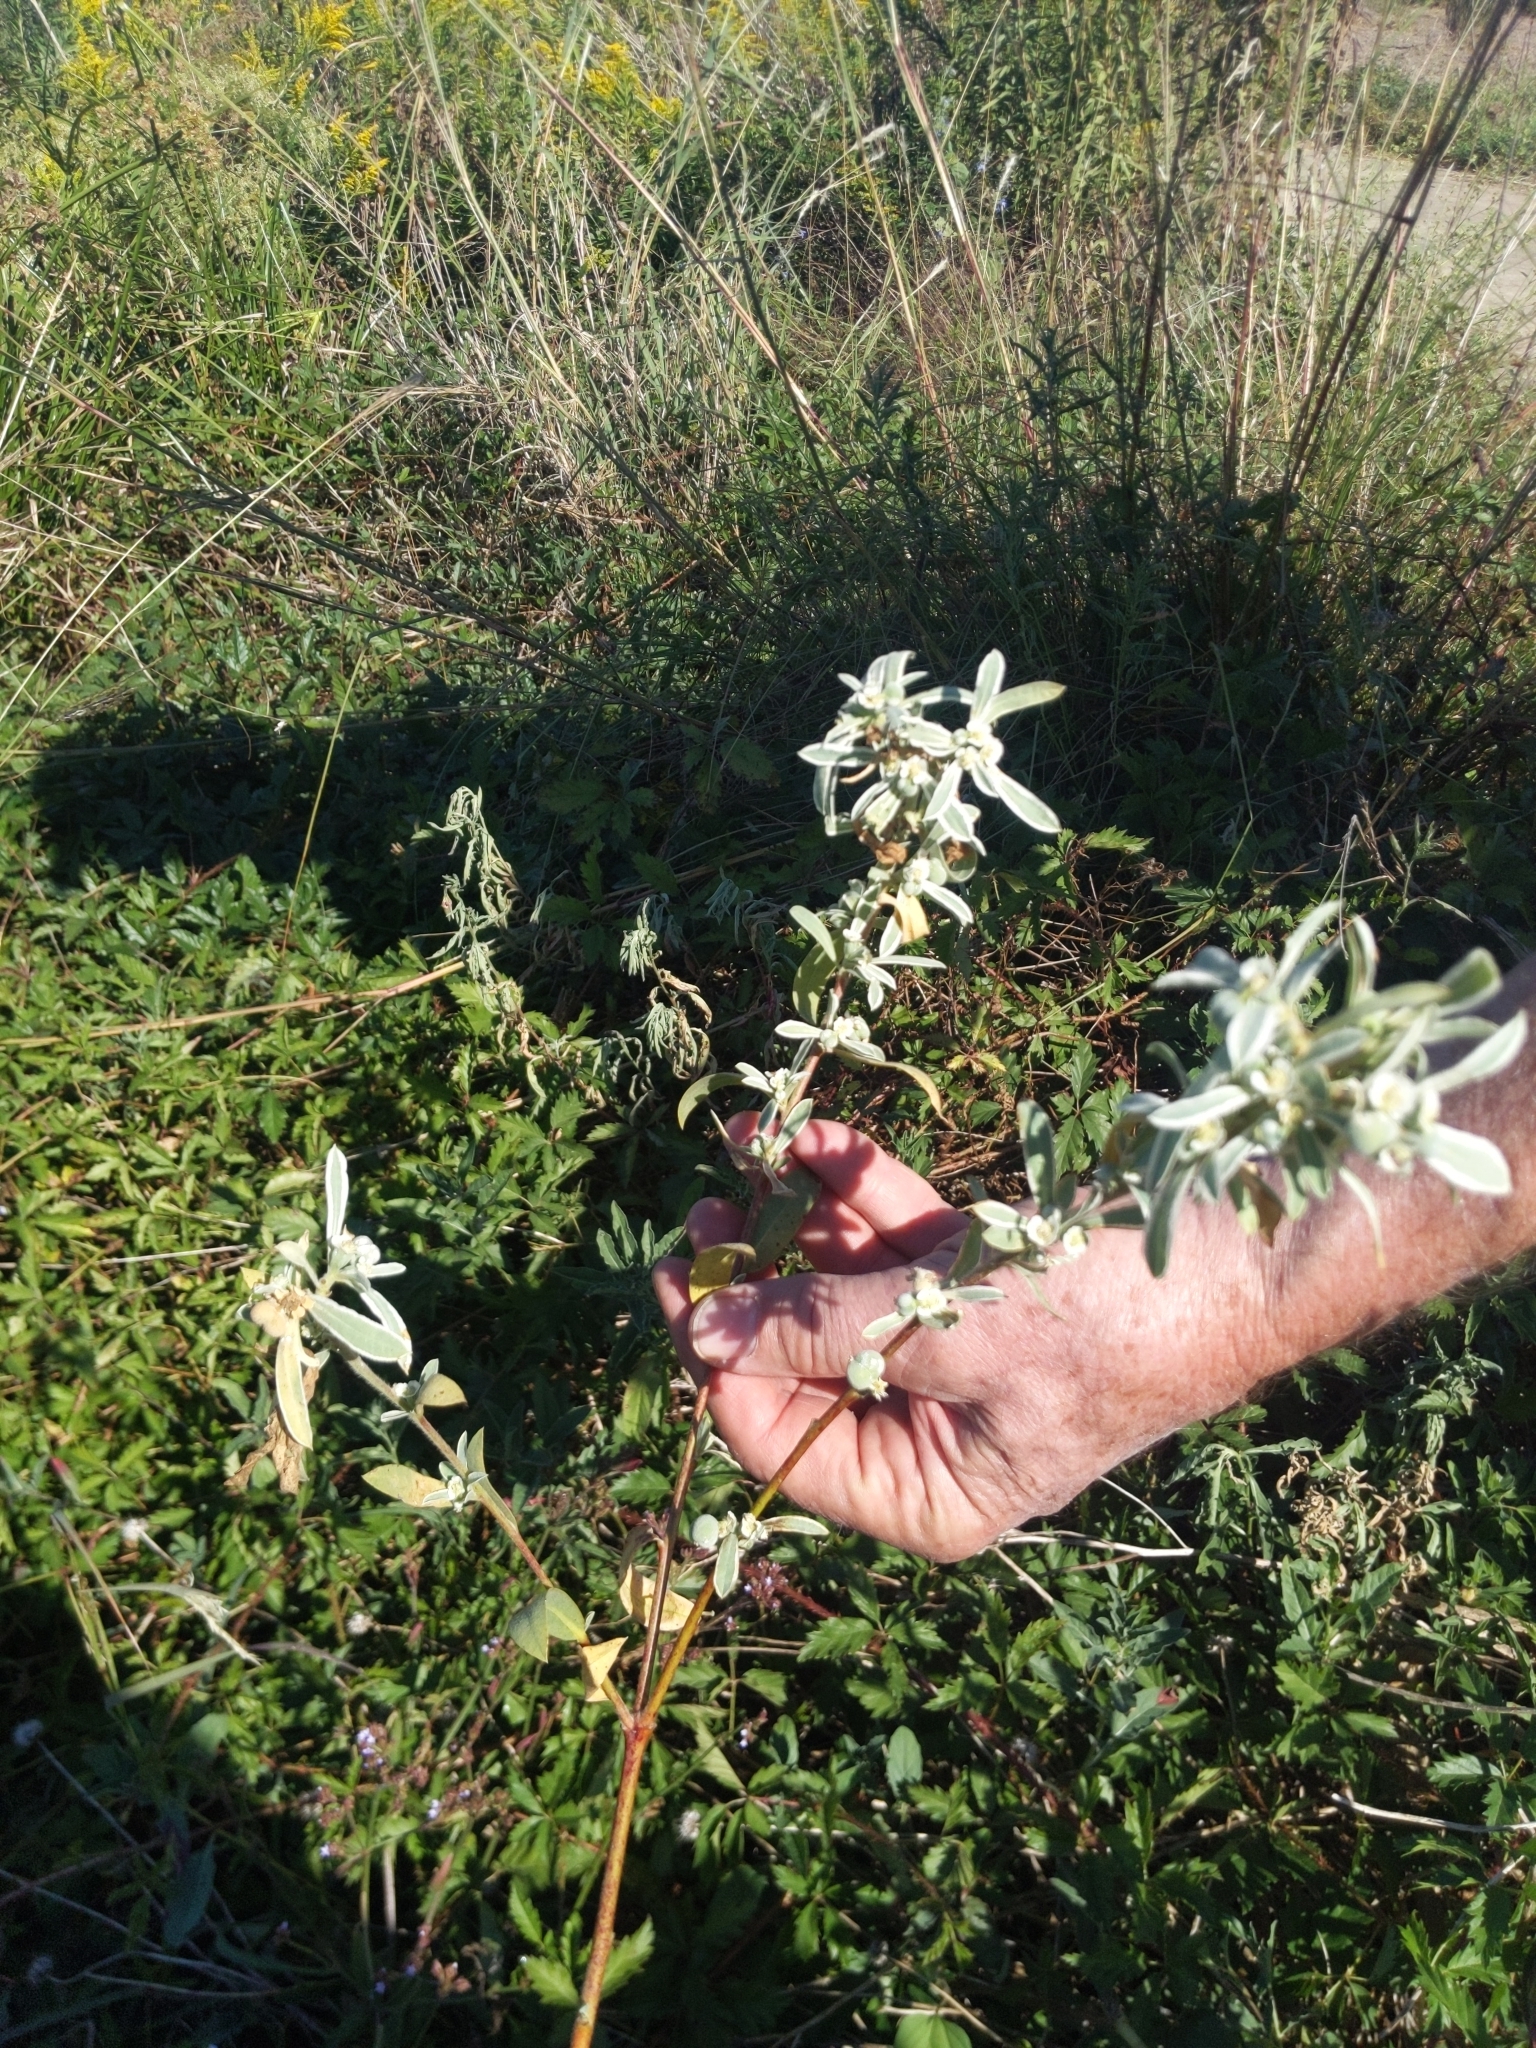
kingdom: Plantae
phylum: Tracheophyta
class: Magnoliopsida
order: Malpighiales
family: Euphorbiaceae
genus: Euphorbia
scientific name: Euphorbia bicolor
